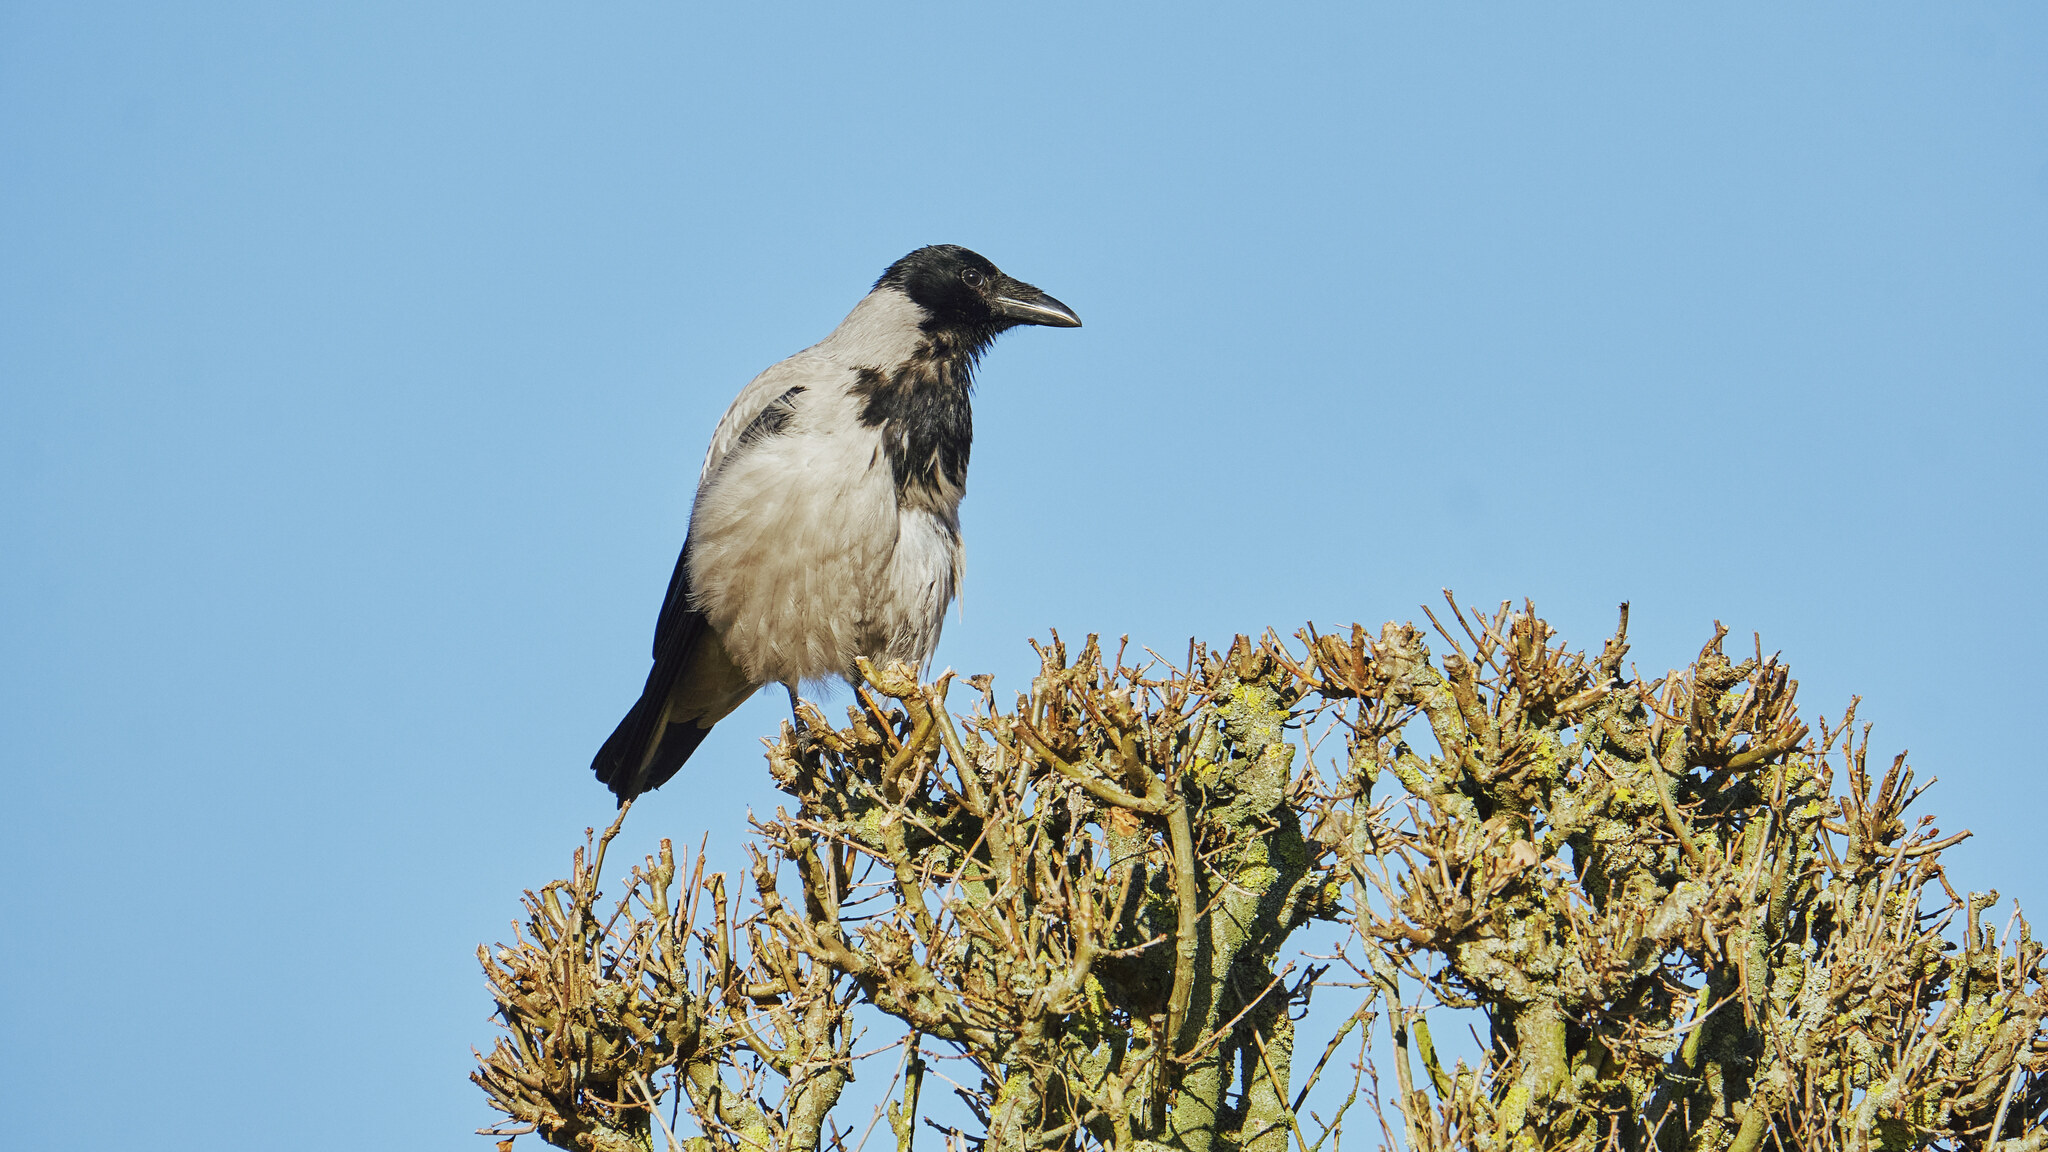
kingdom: Animalia
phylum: Chordata
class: Aves
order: Passeriformes
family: Corvidae
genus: Corvus
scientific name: Corvus cornix
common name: Hooded crow
